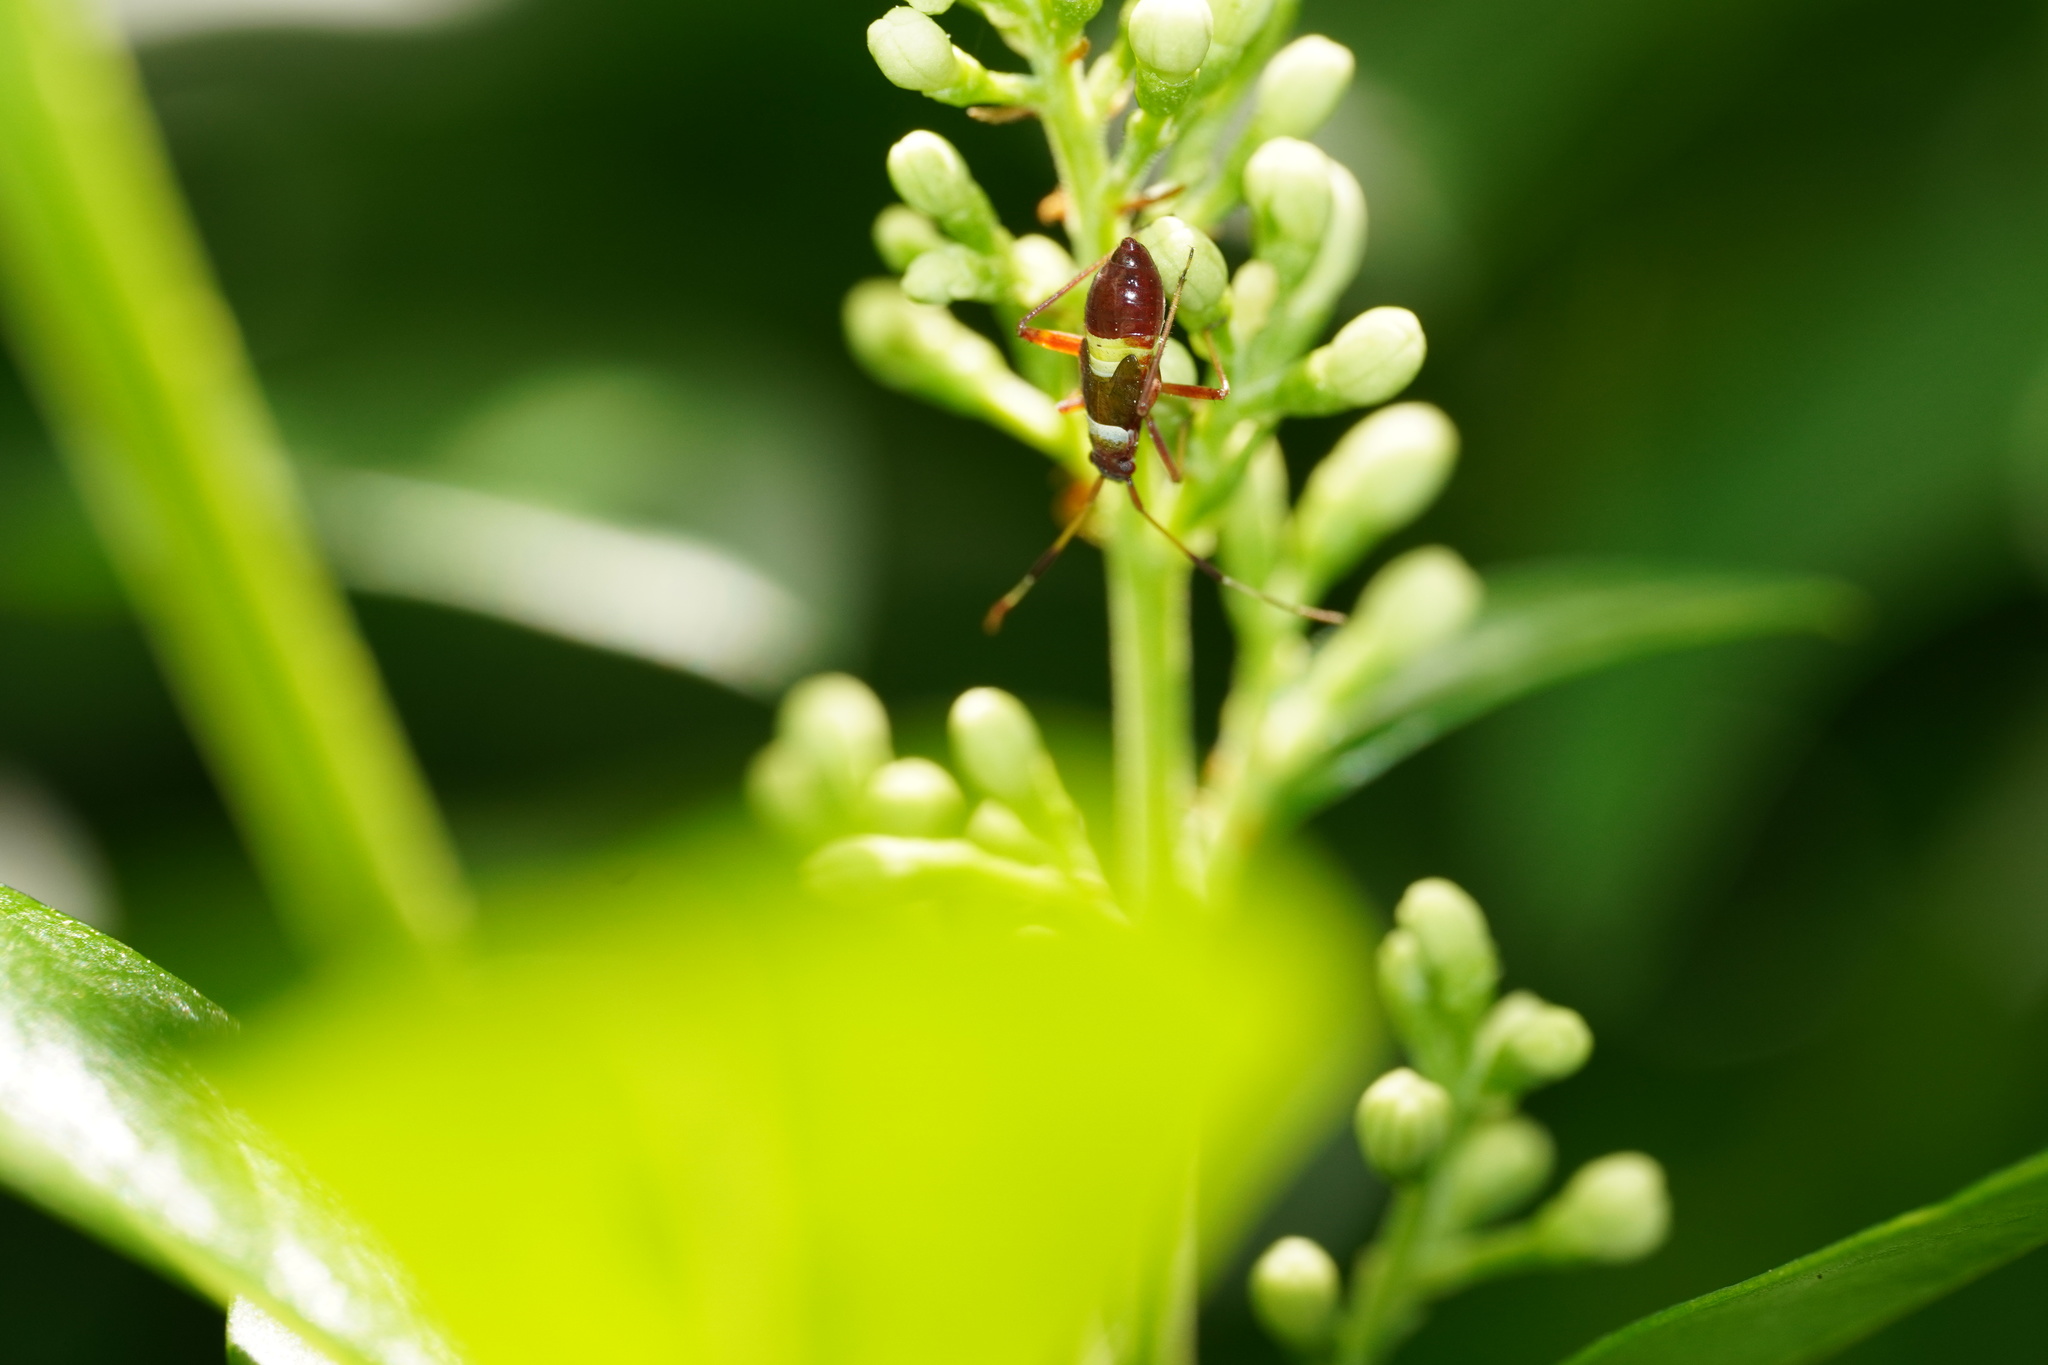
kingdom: Animalia
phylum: Arthropoda
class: Insecta
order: Hemiptera
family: Miridae
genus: Closterotomus
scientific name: Closterotomus biclavatus
